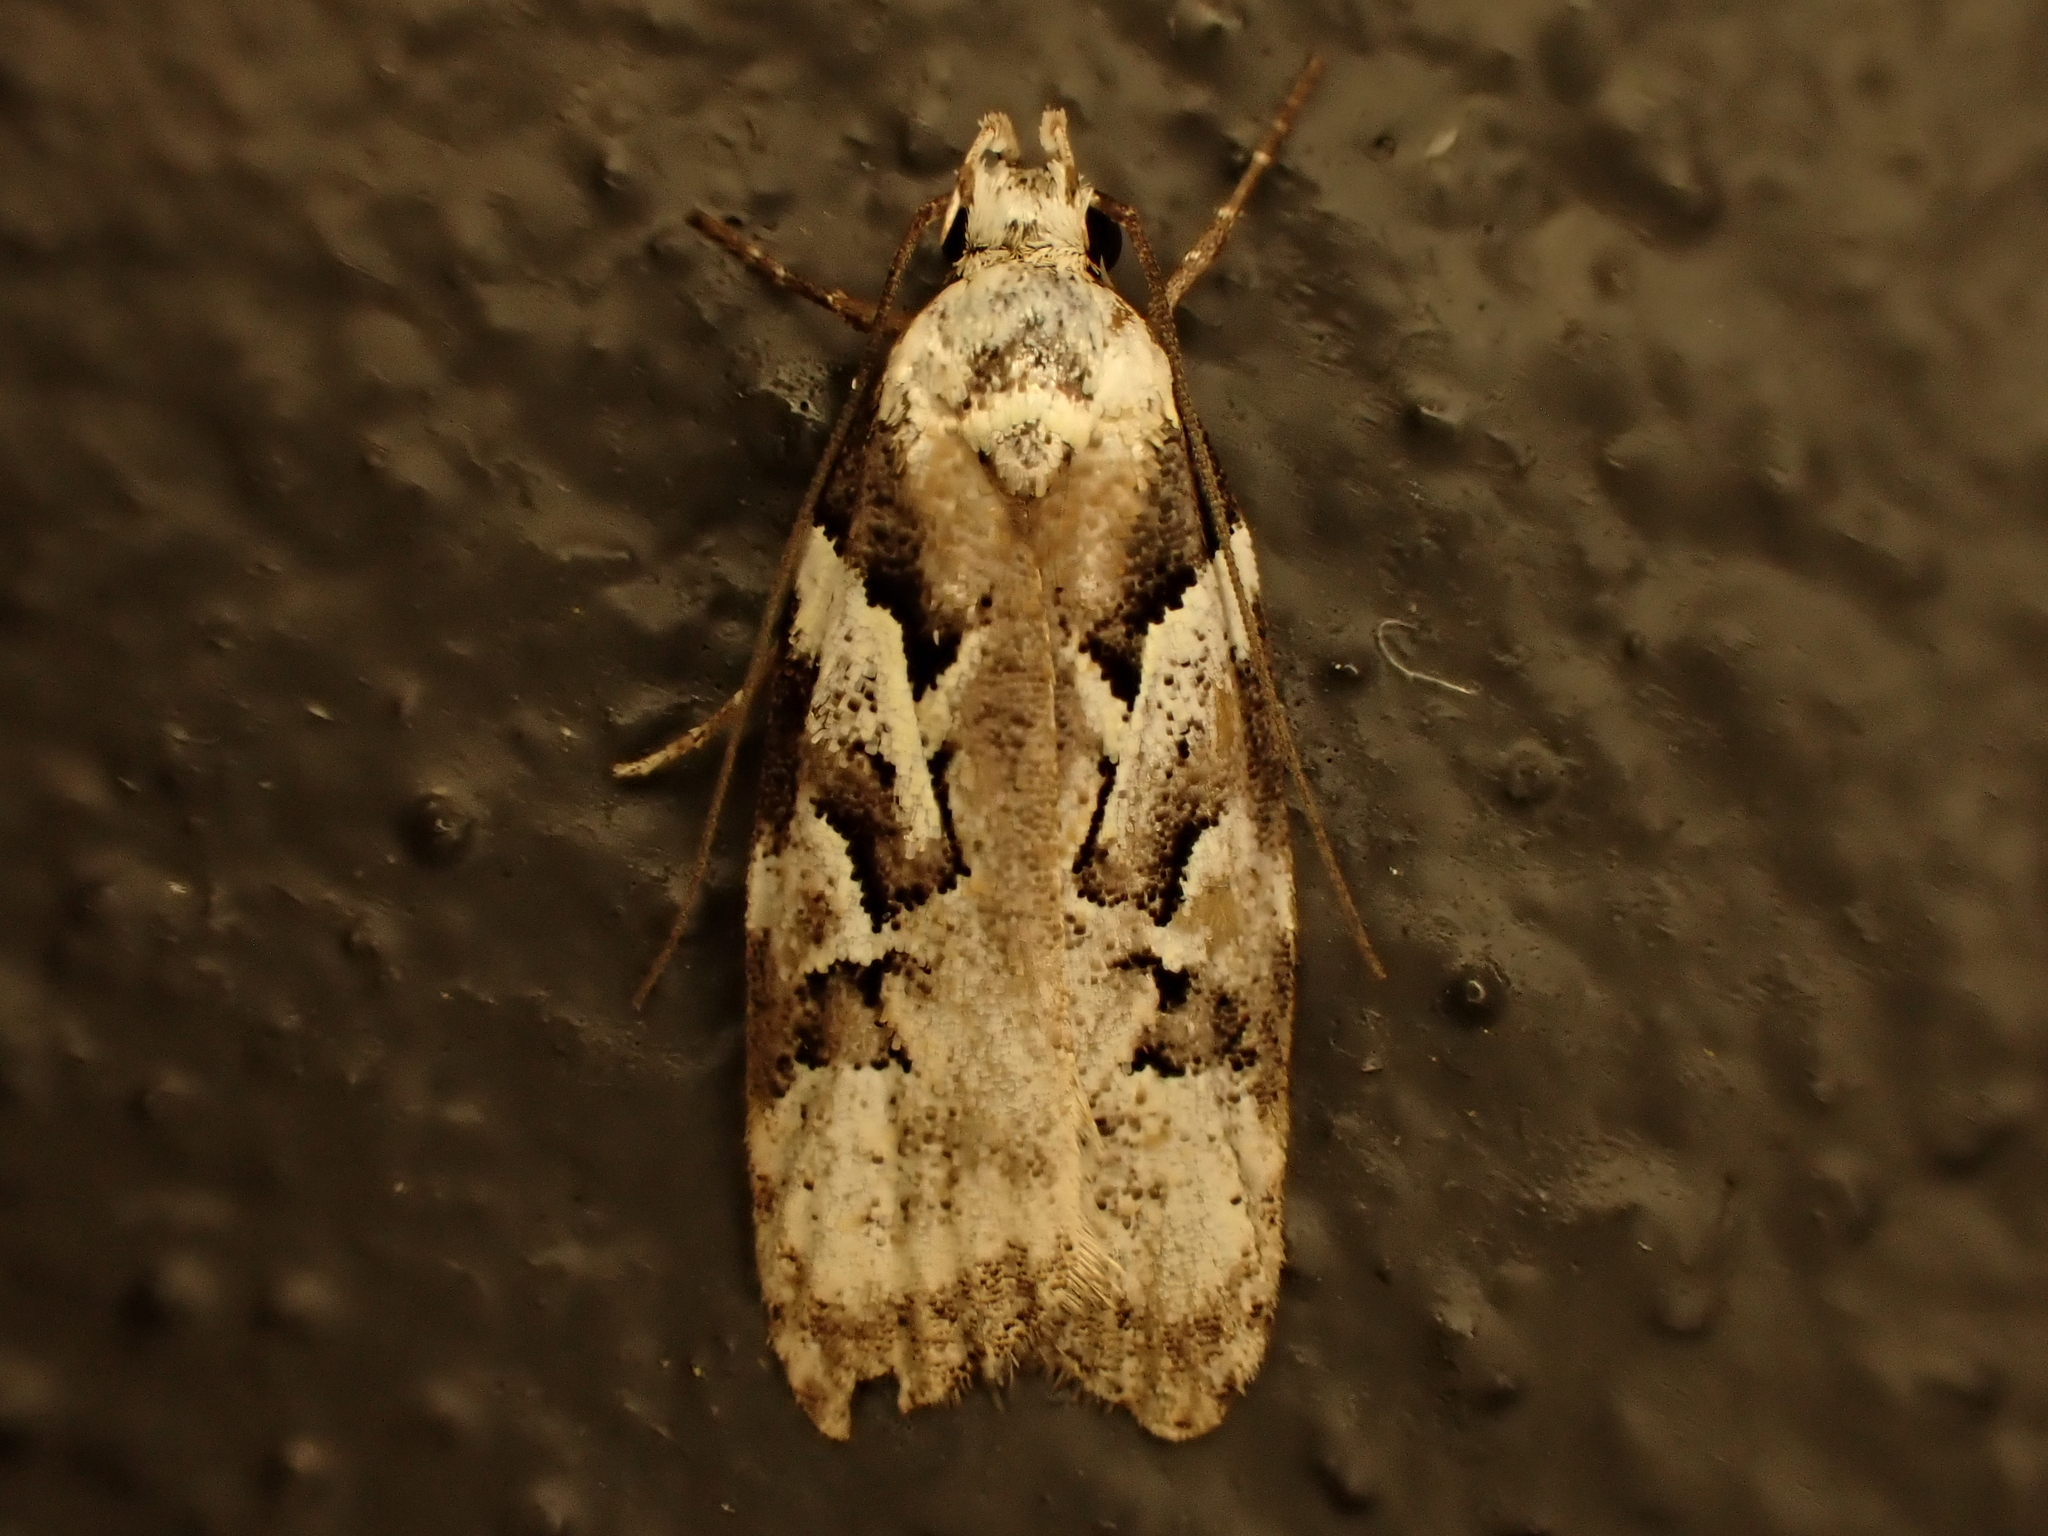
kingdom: Animalia
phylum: Arthropoda
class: Insecta
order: Lepidoptera
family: Oecophoridae
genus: Izatha
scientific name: Izatha epiphanes
